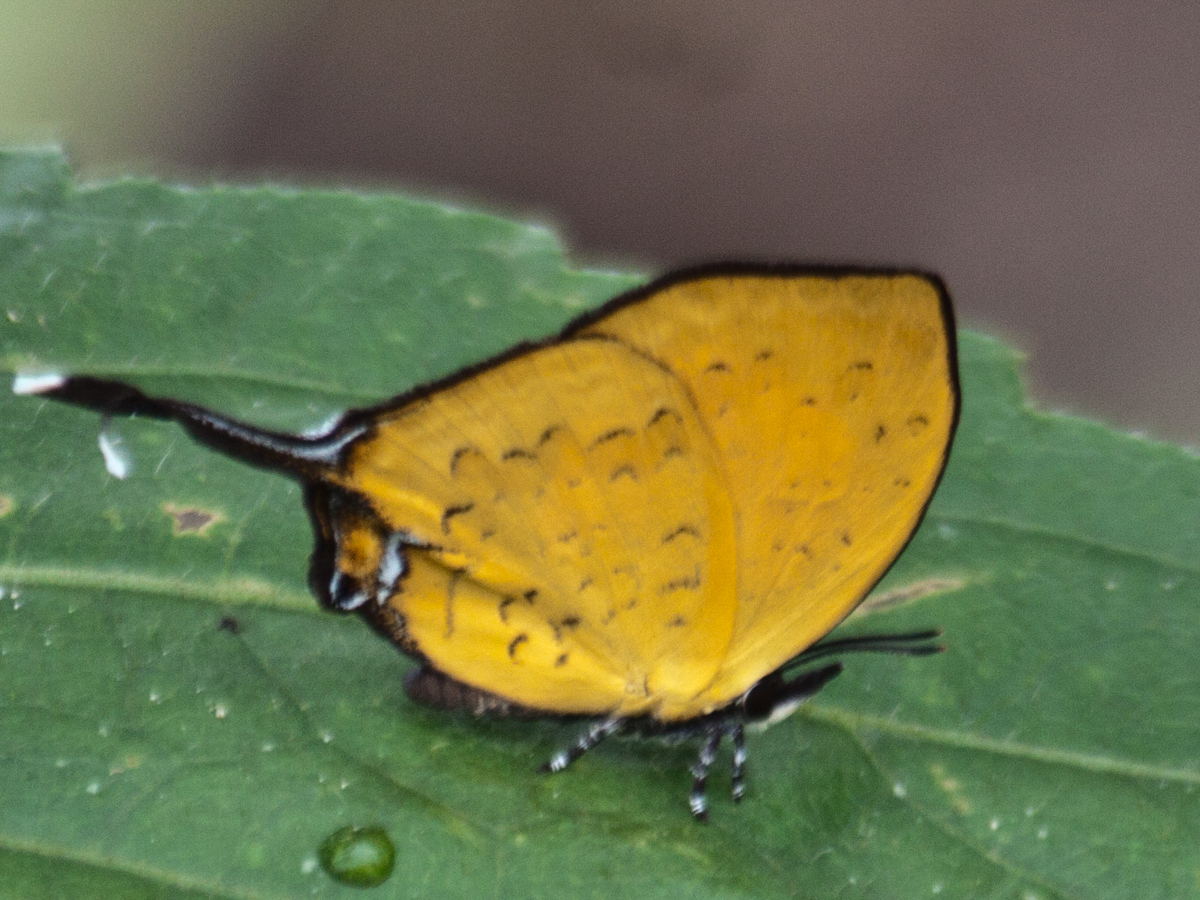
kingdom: Animalia
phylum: Arthropoda
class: Insecta
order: Lepidoptera
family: Lycaenidae
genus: Yasoda
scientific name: Yasoda tripunctata
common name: Branded yamfly
